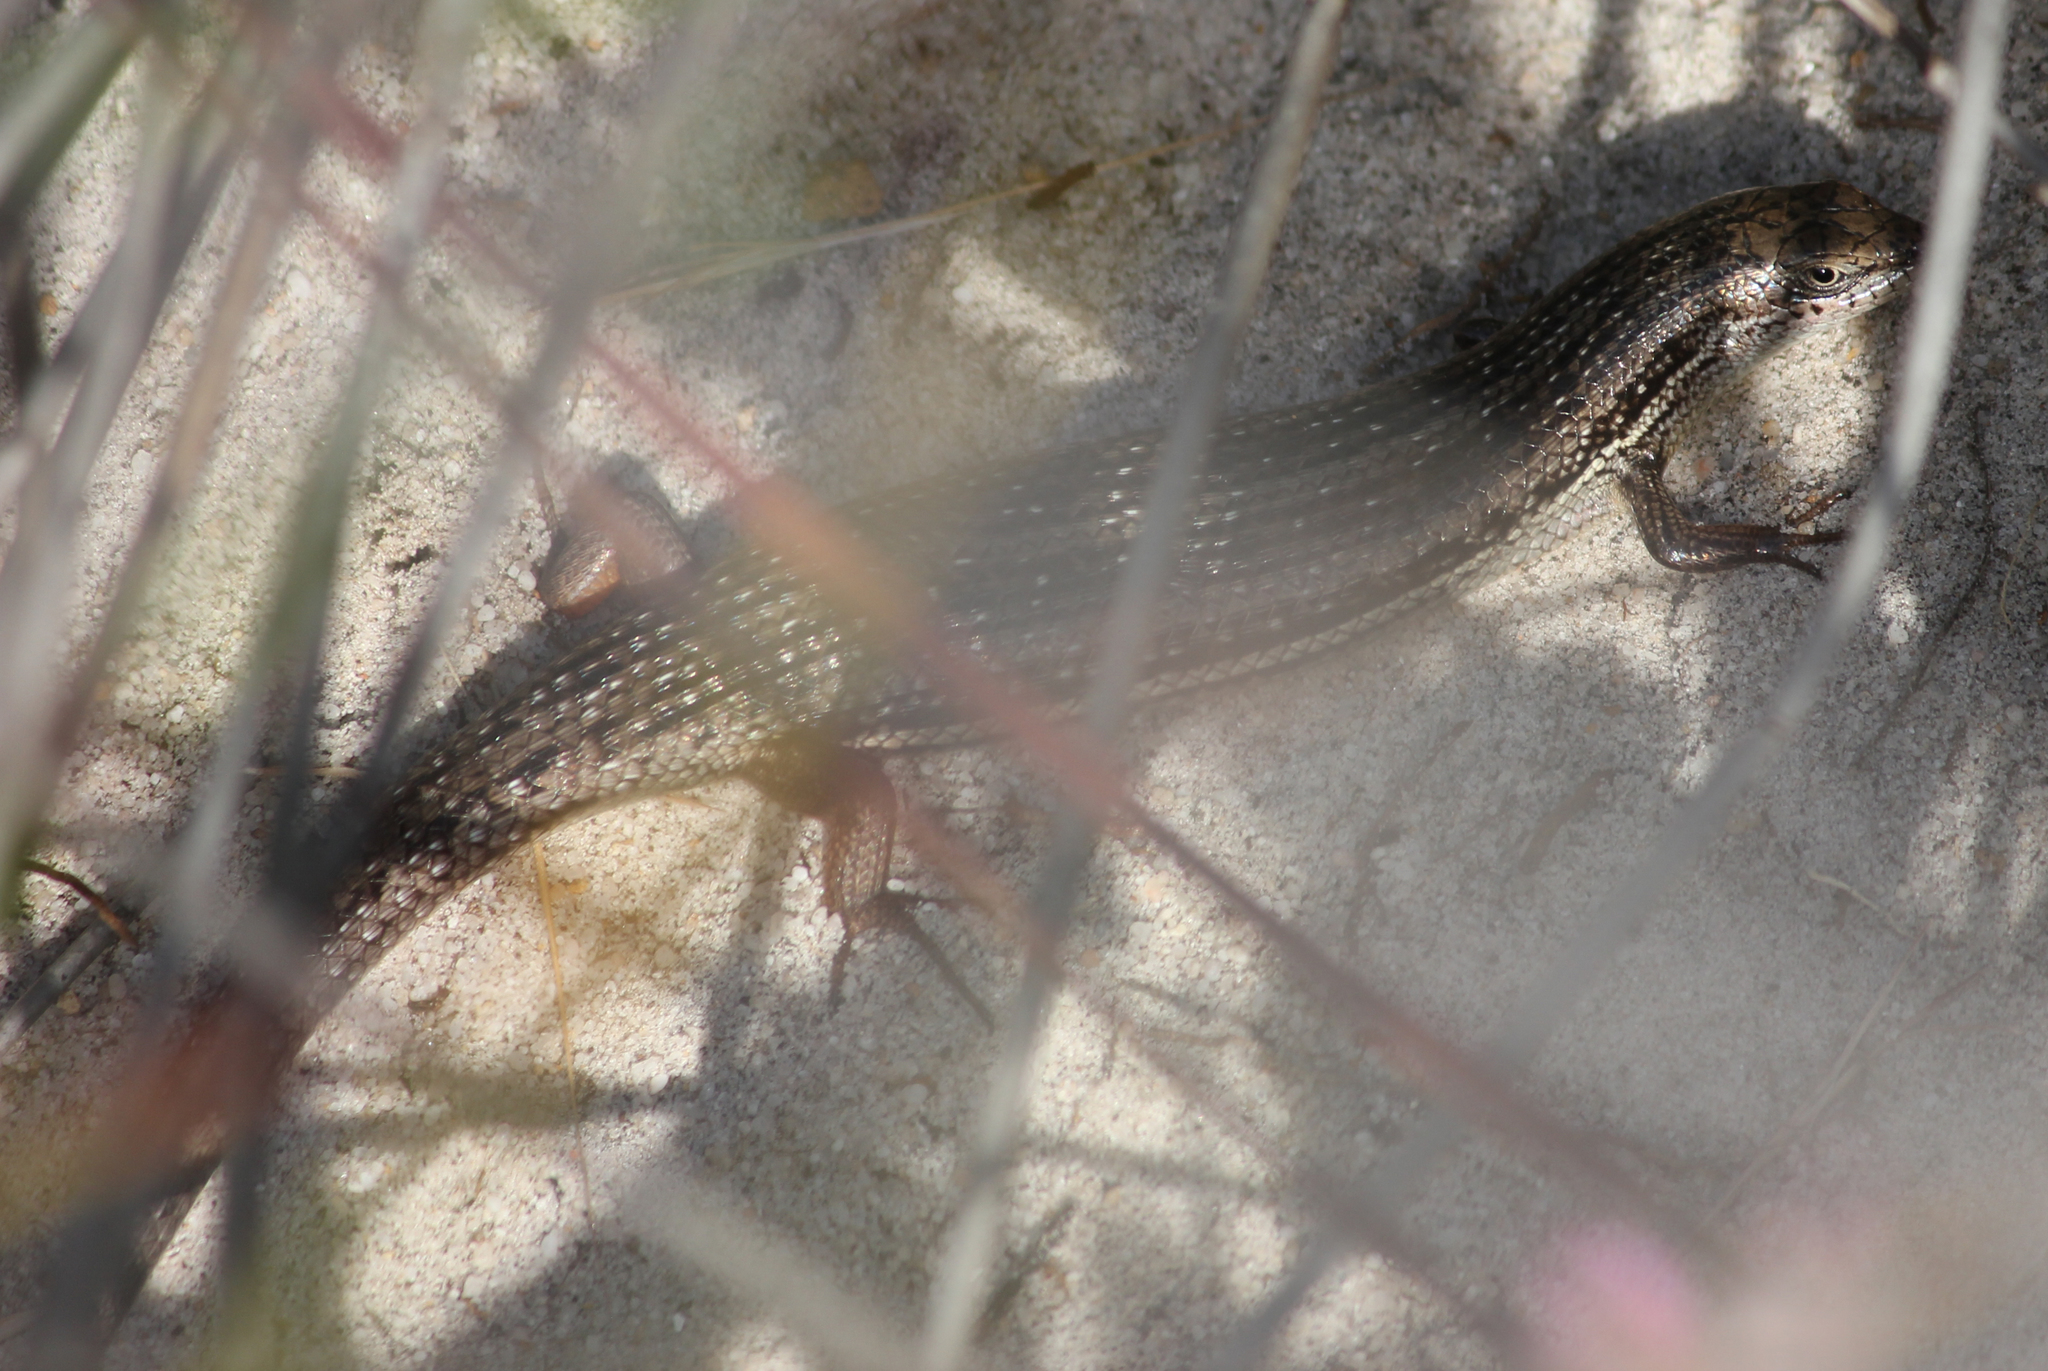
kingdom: Animalia
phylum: Chordata
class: Squamata
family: Scincidae
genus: Trachylepis
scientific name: Trachylepis homalocephala
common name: Red-sided skink
